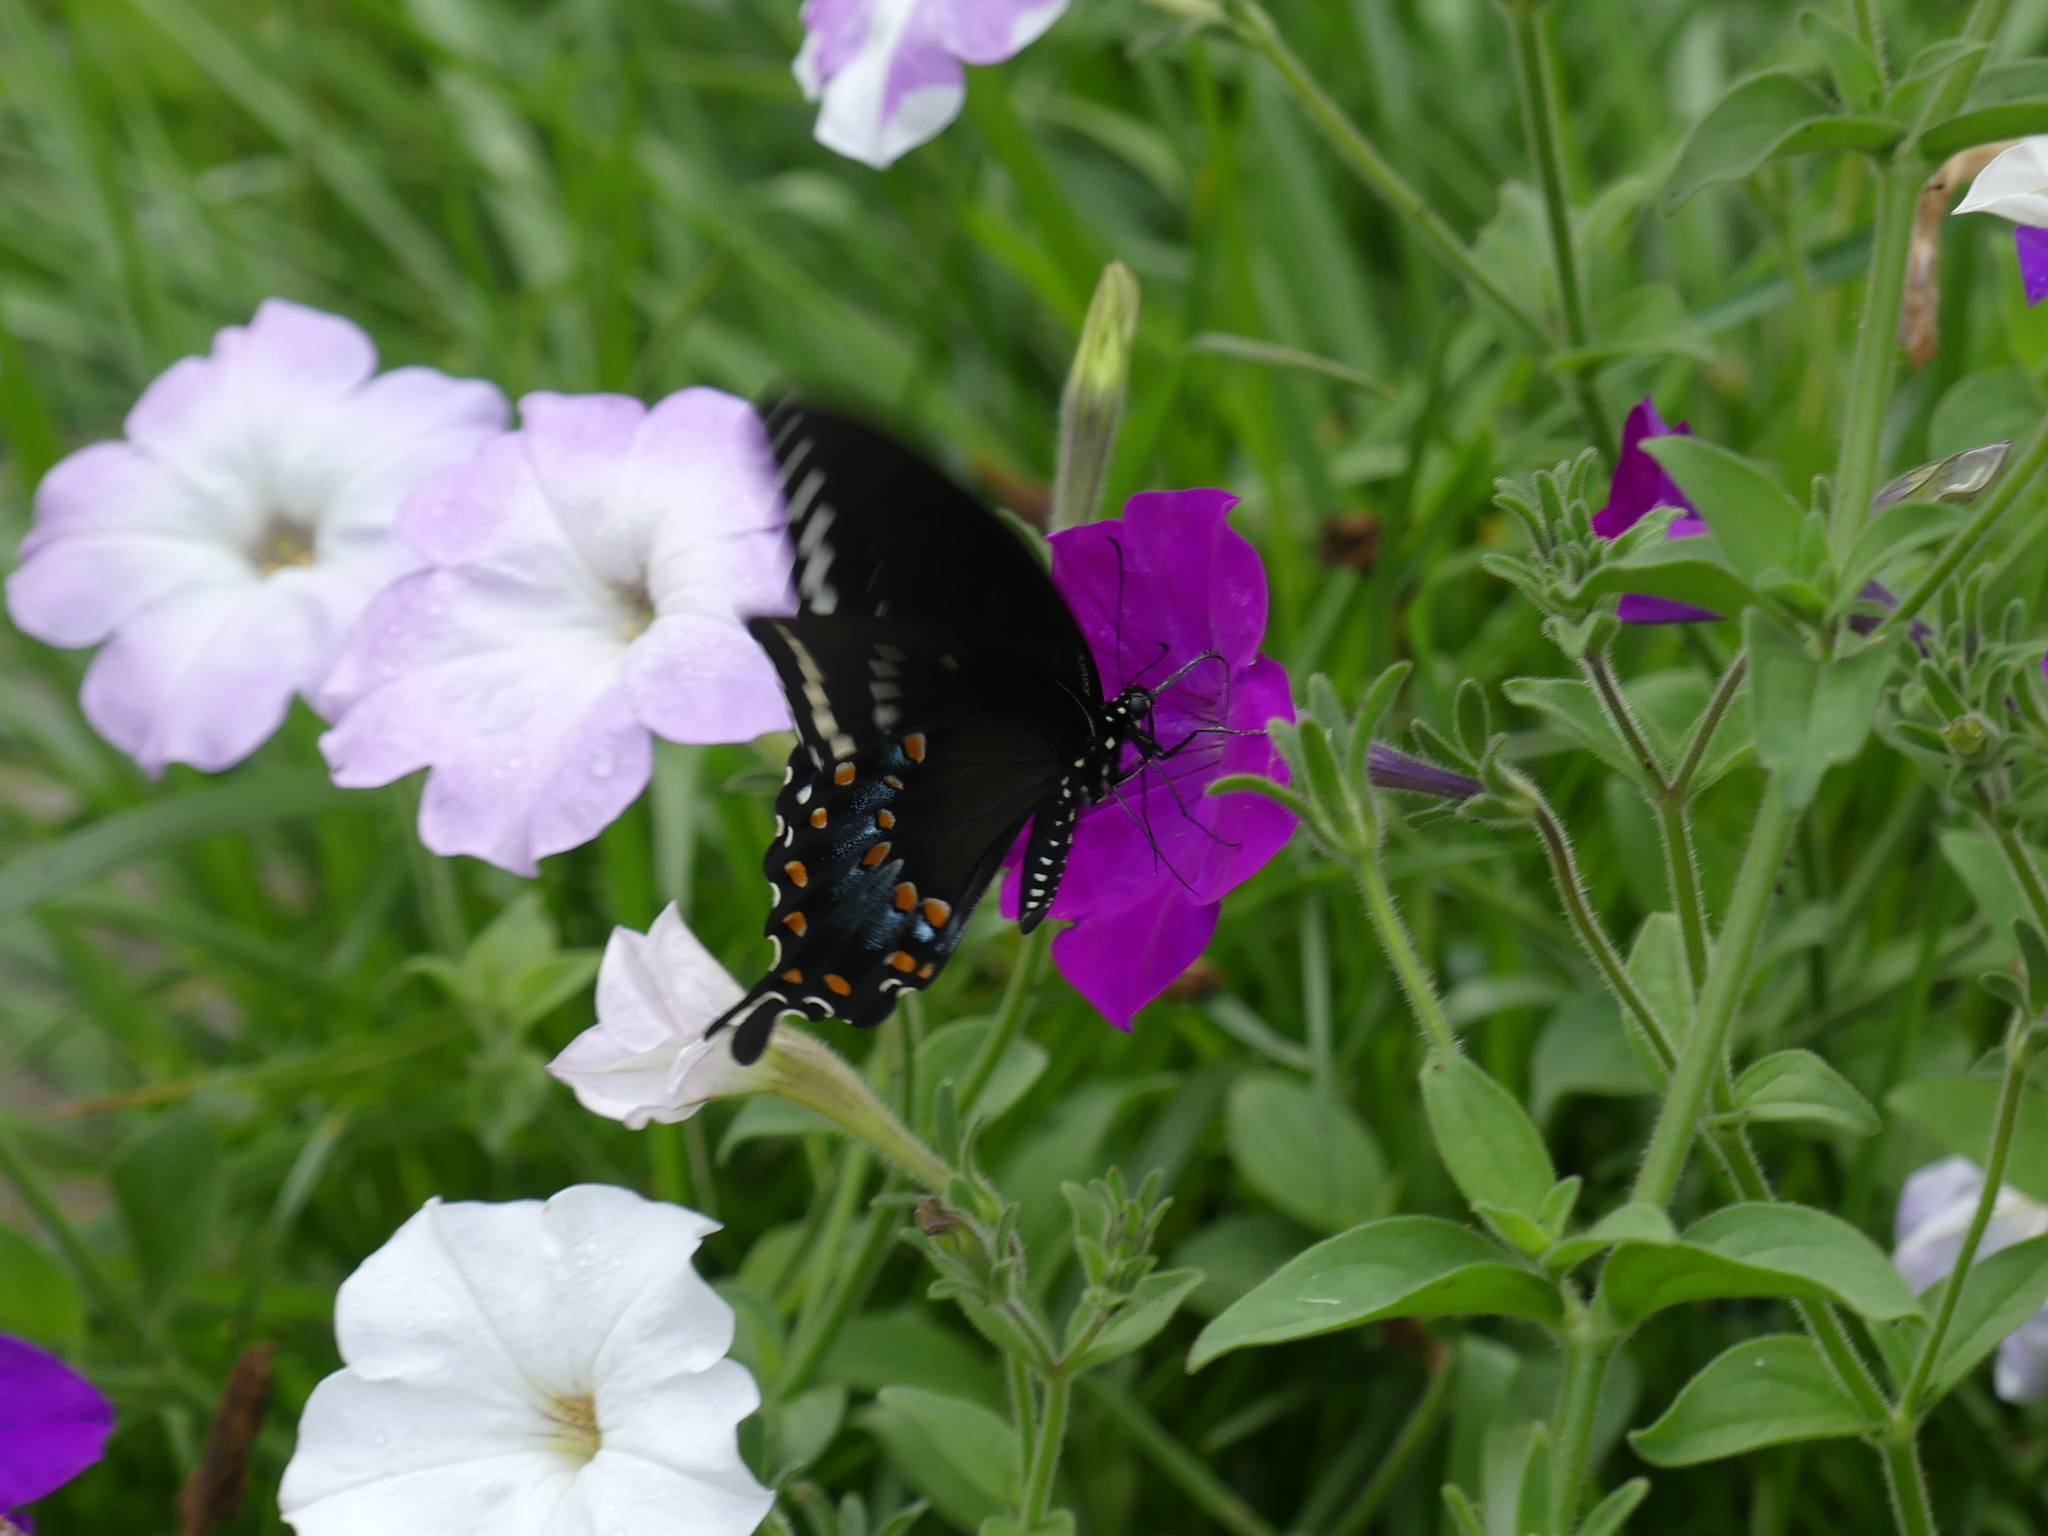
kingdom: Animalia
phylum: Arthropoda
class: Insecta
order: Lepidoptera
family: Papilionidae
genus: Papilio
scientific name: Papilio troilus
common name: Spicebush swallowtail
